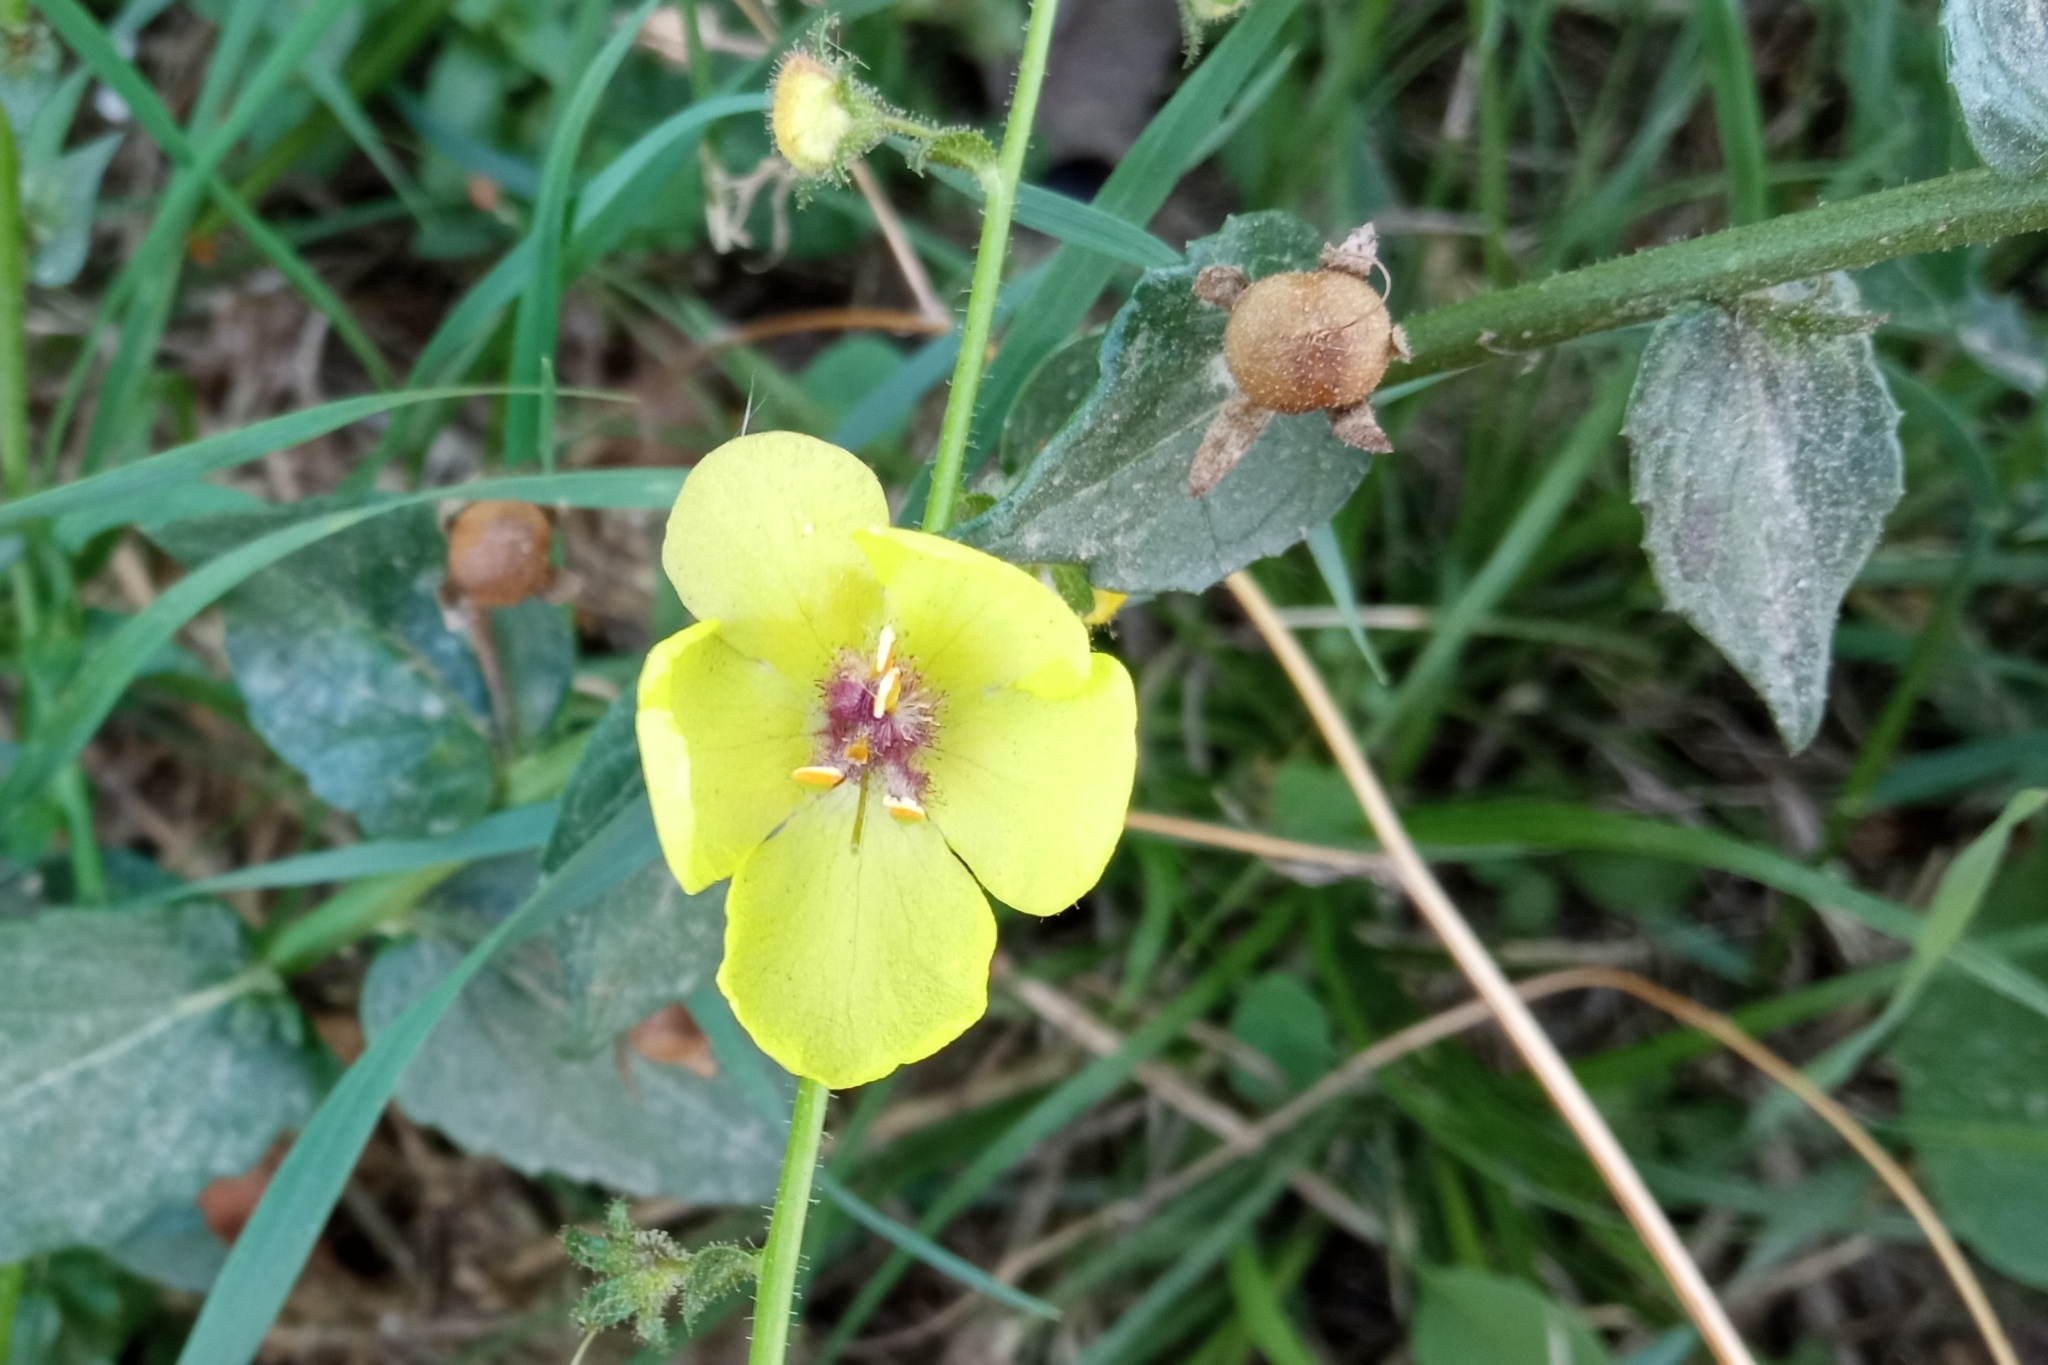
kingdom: Plantae
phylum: Tracheophyta
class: Magnoliopsida
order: Lamiales
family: Scrophulariaceae
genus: Verbascum
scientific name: Verbascum blattaria
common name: Moth mullein
